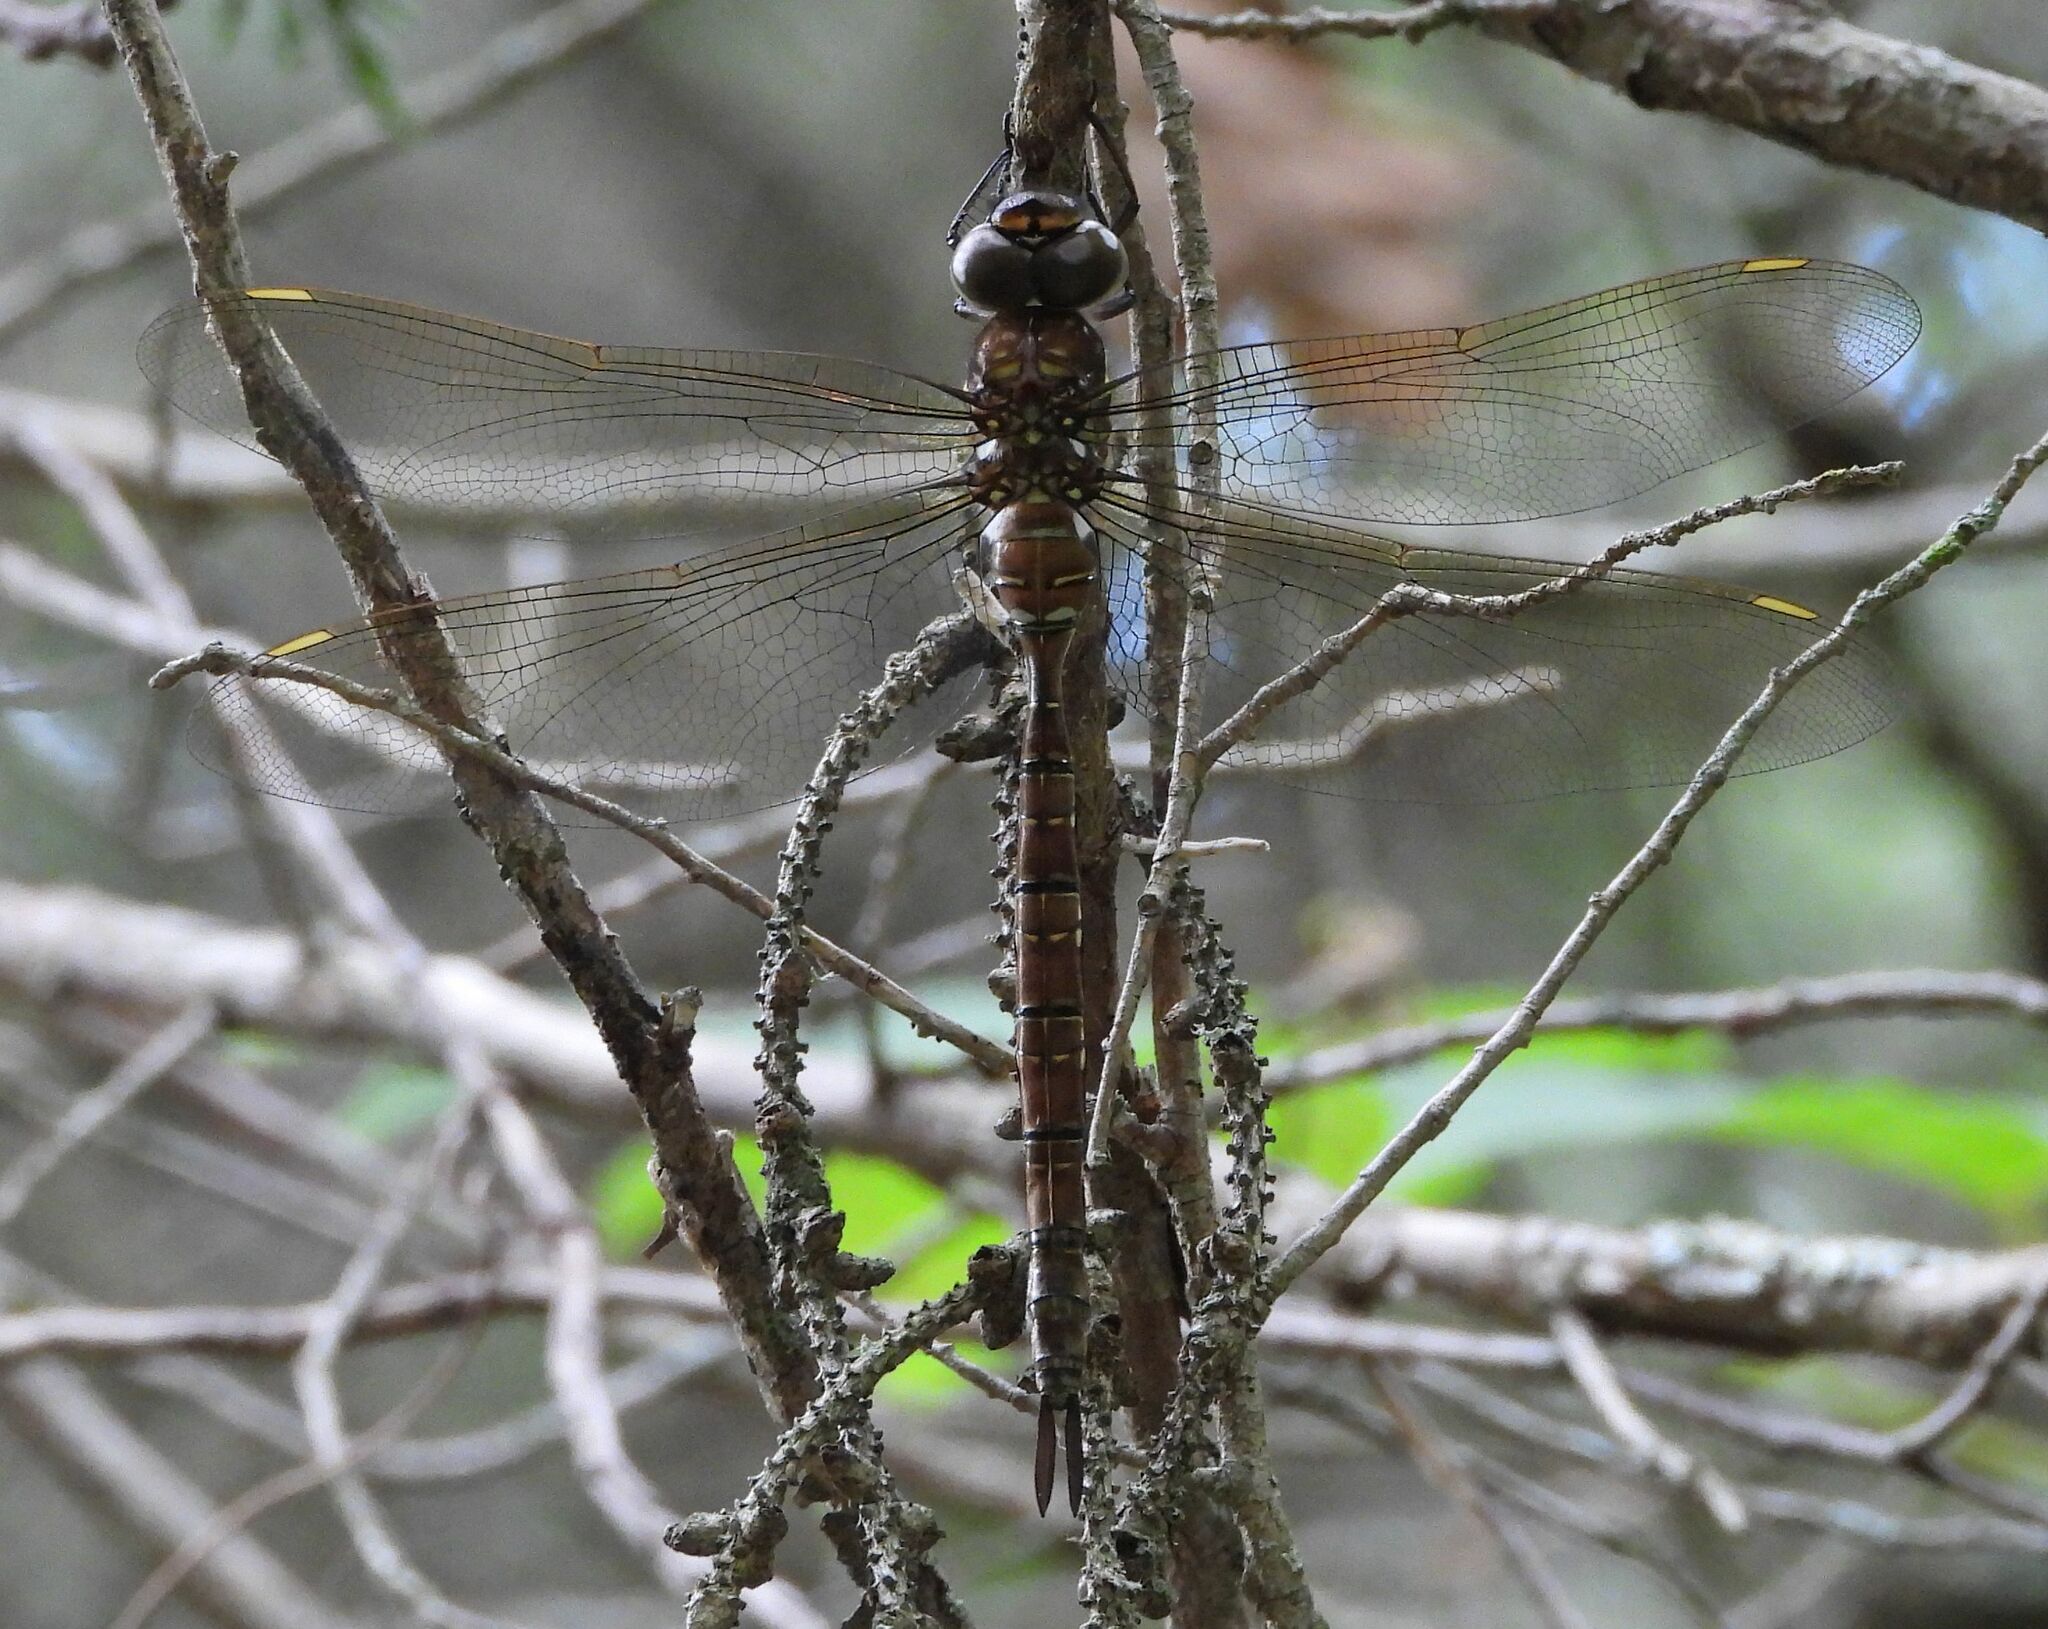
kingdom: Animalia
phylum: Arthropoda
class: Insecta
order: Odonata
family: Aeshnidae
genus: Aeshna
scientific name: Aeshna umbrosa
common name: Shadow darner
